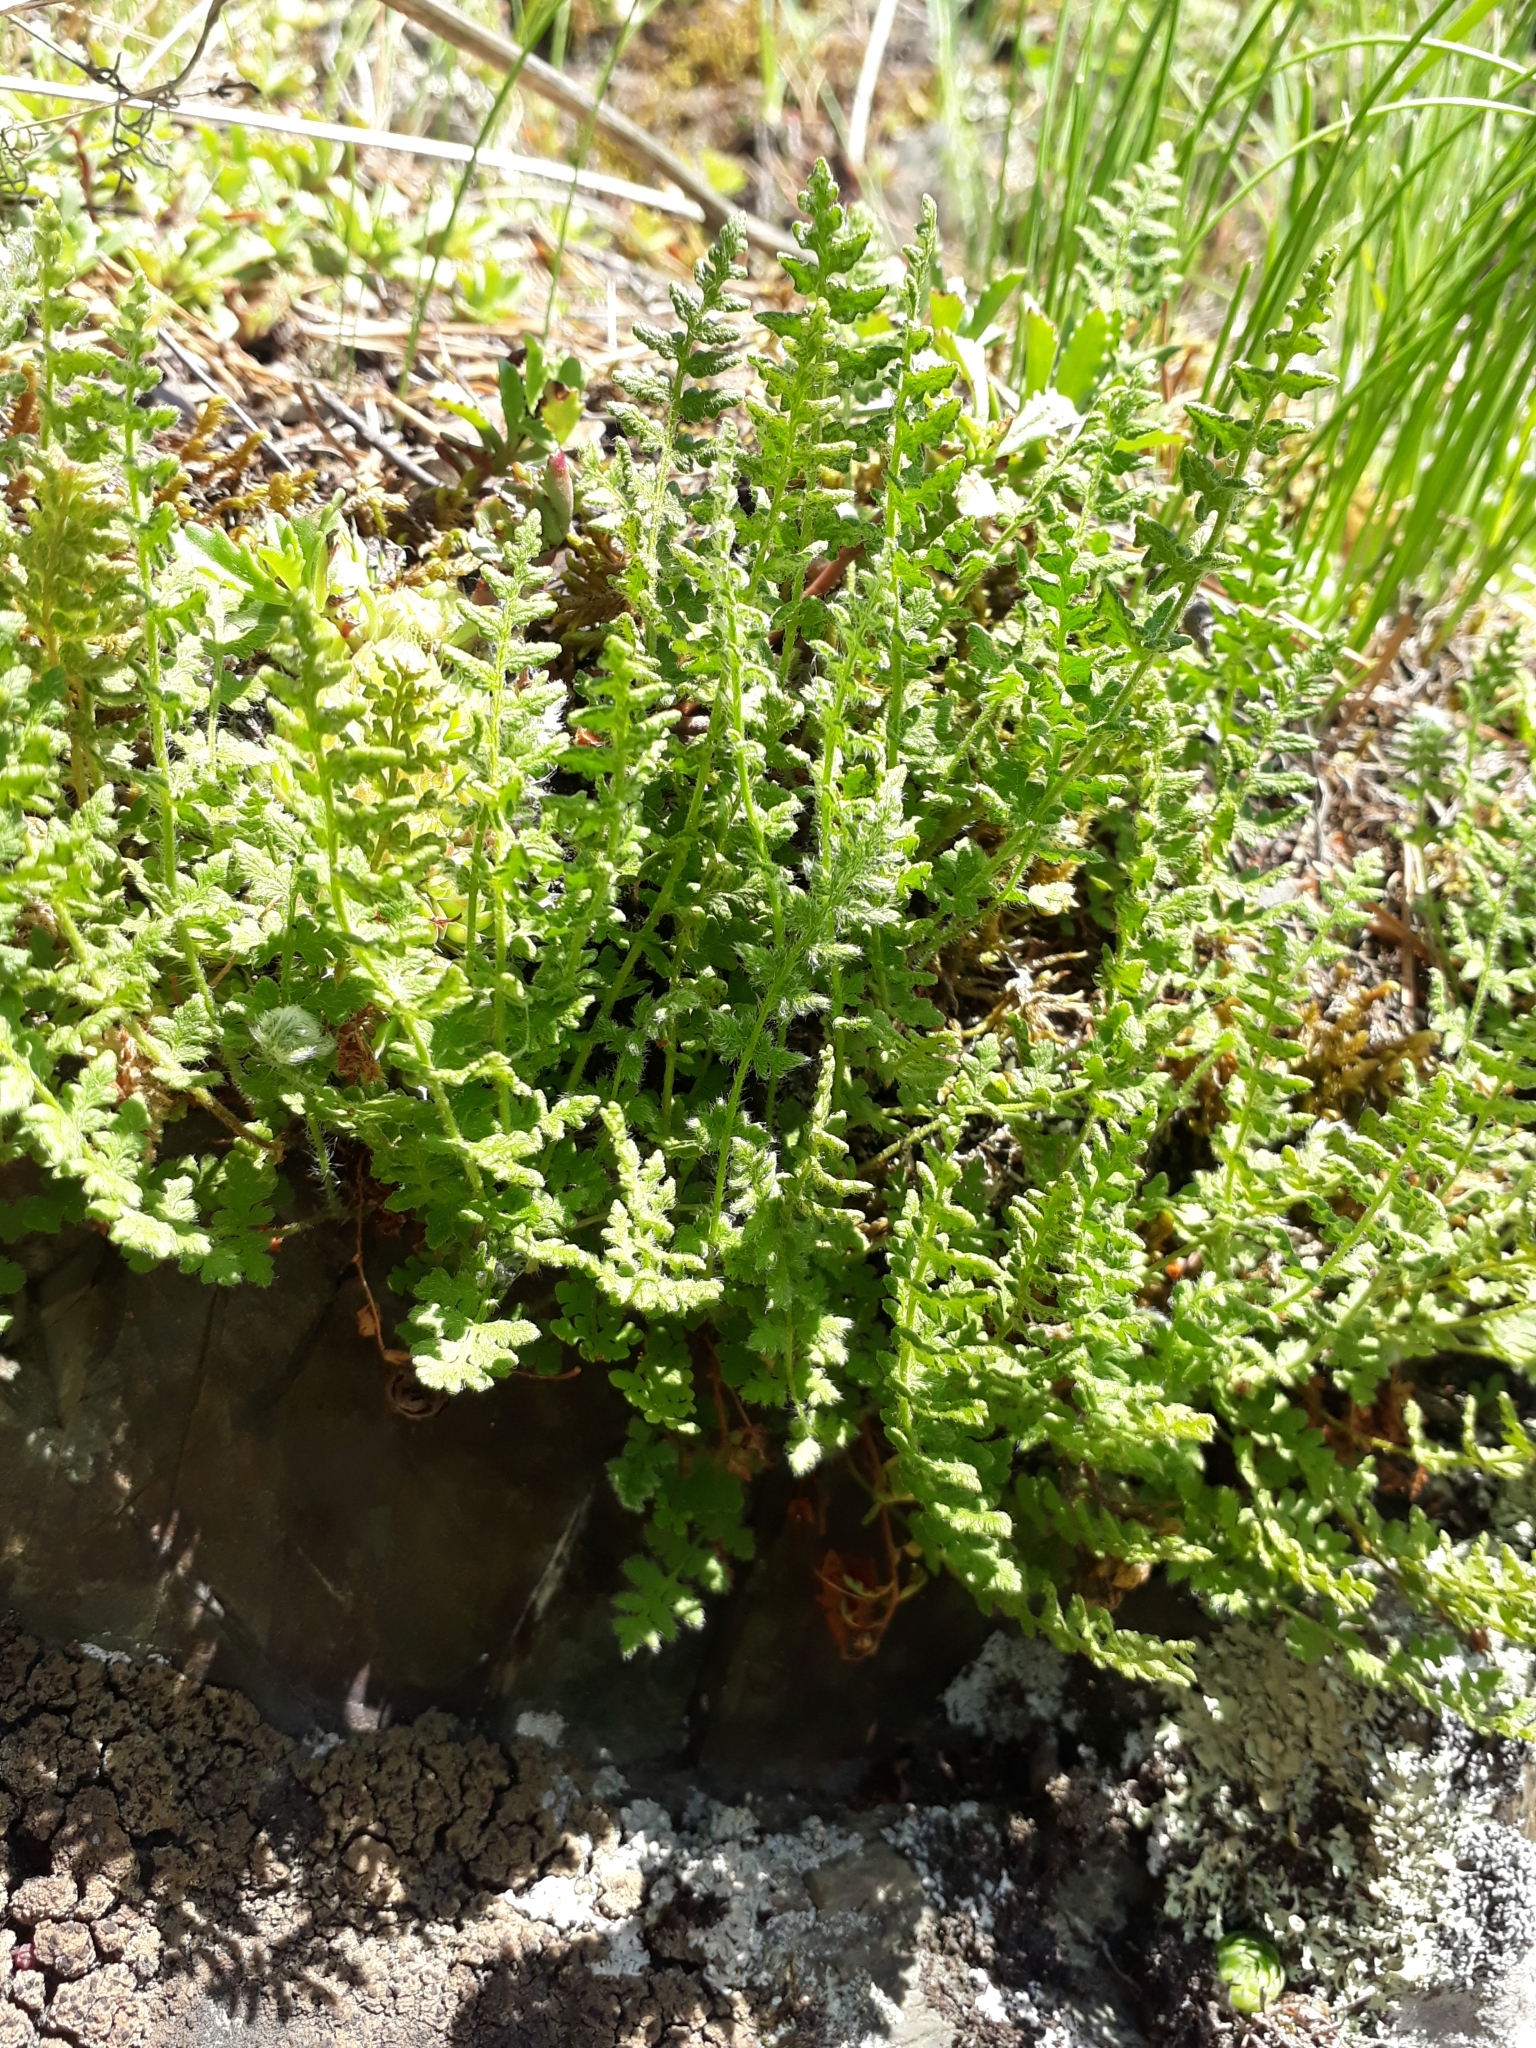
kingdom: Plantae
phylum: Tracheophyta
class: Polypodiopsida
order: Polypodiales
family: Woodsiaceae
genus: Woodsia
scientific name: Woodsia calcarea
